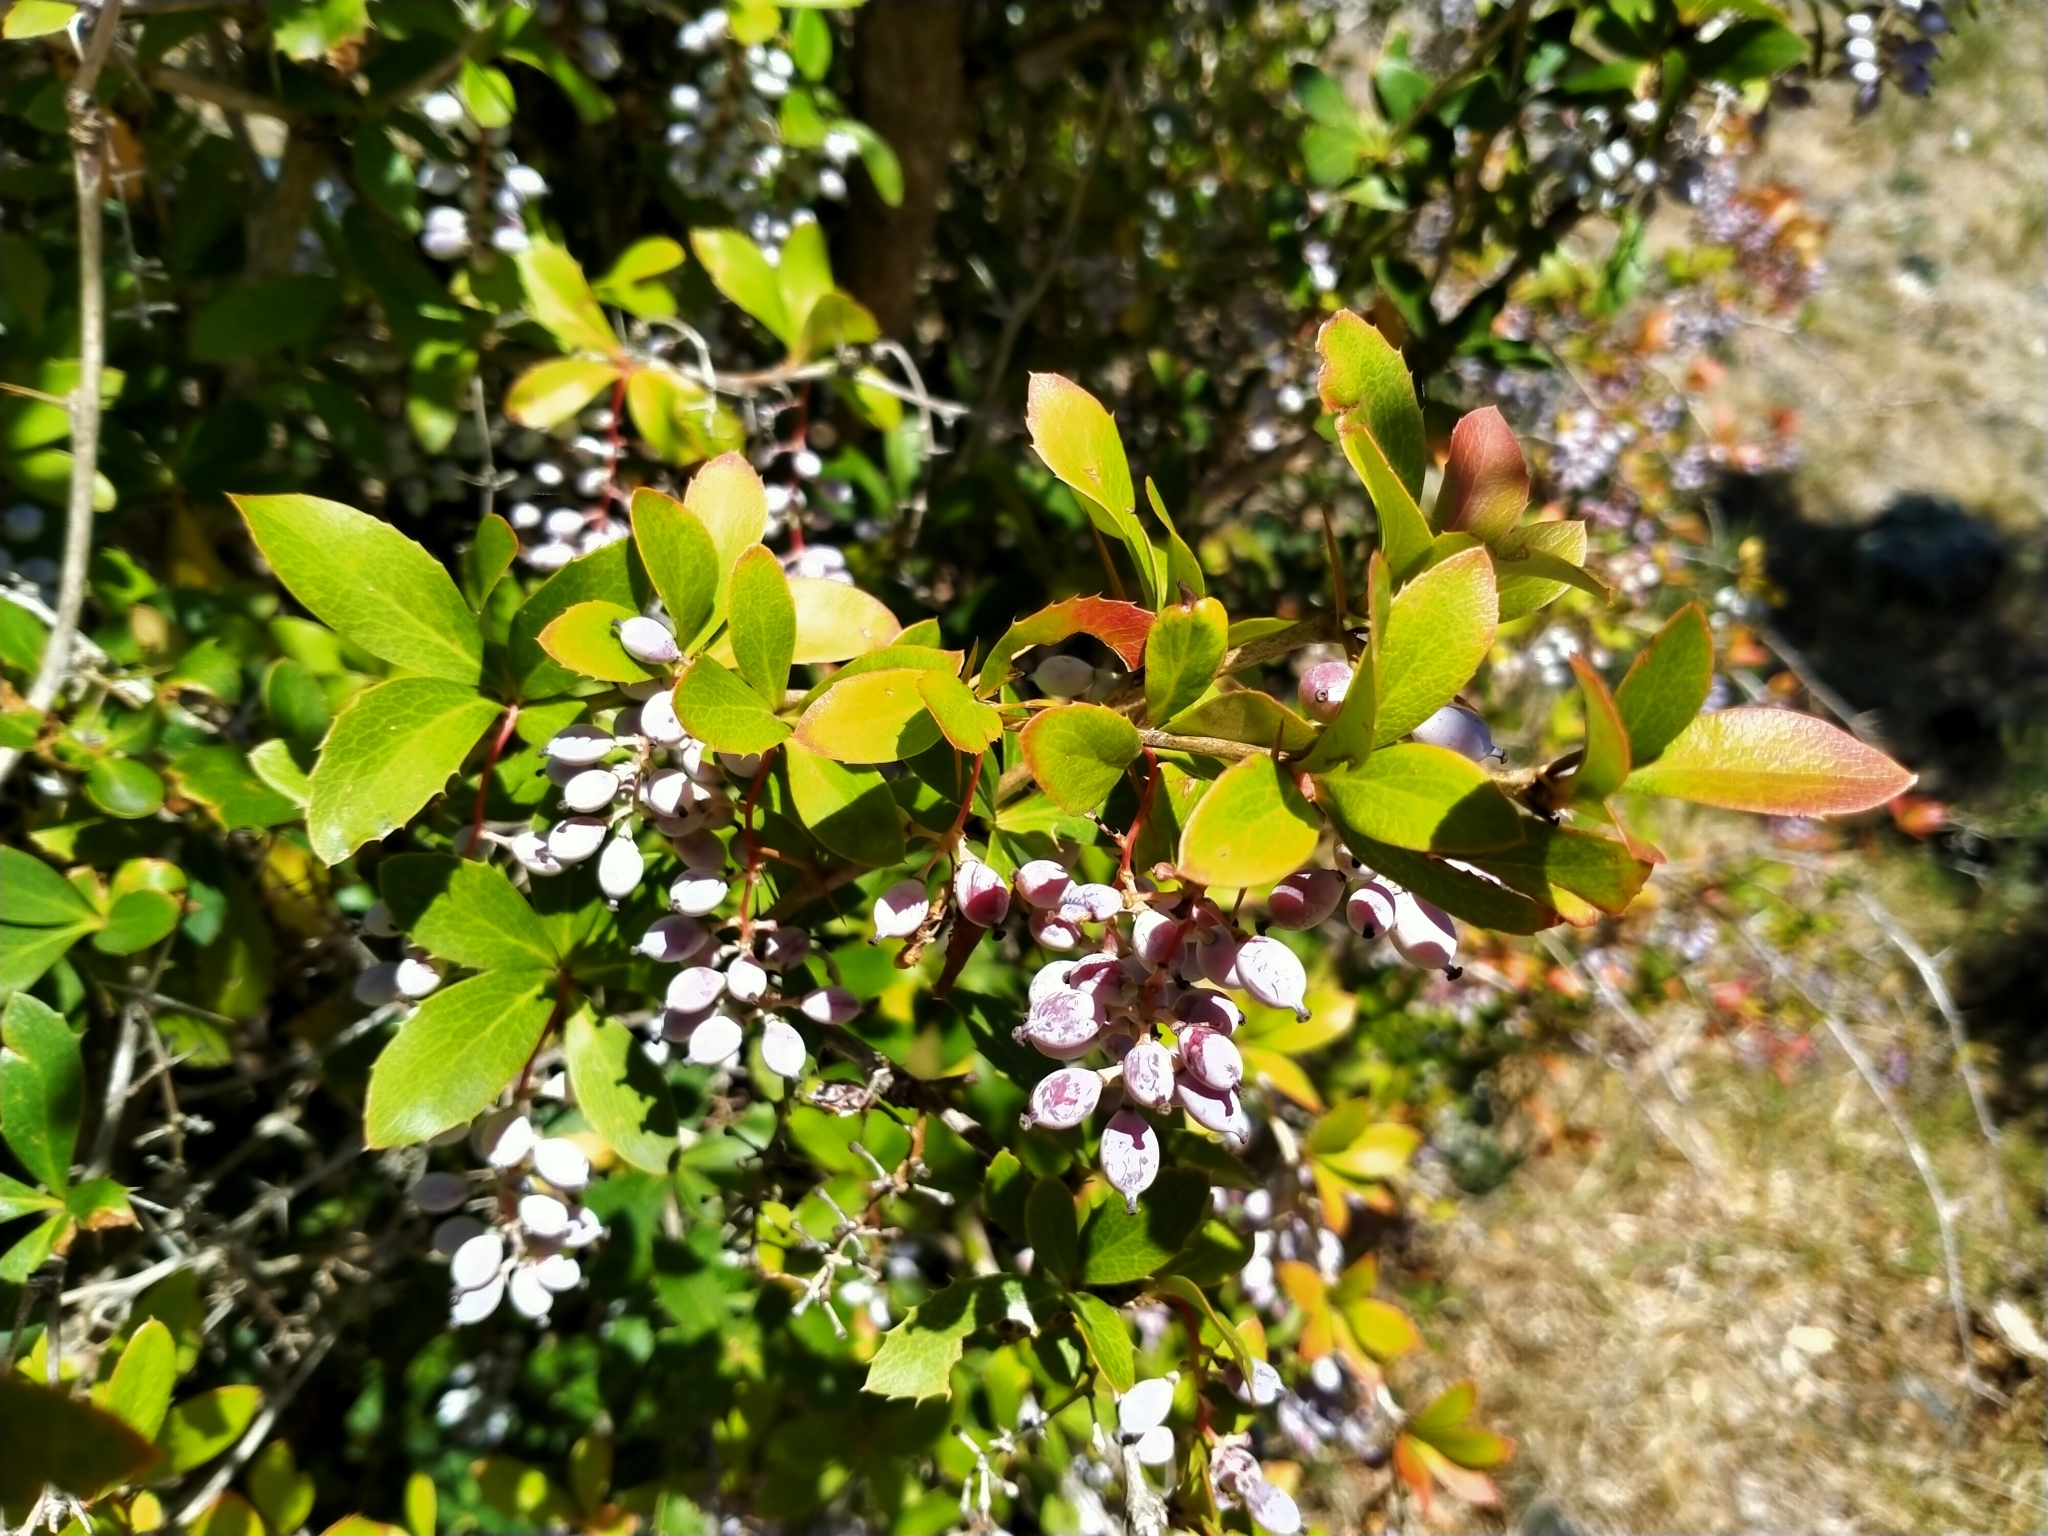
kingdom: Plantae
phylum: Tracheophyta
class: Magnoliopsida
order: Ranunculales
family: Berberidaceae
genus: Berberis
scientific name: Berberis glaucocarpa
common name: Great barberry
